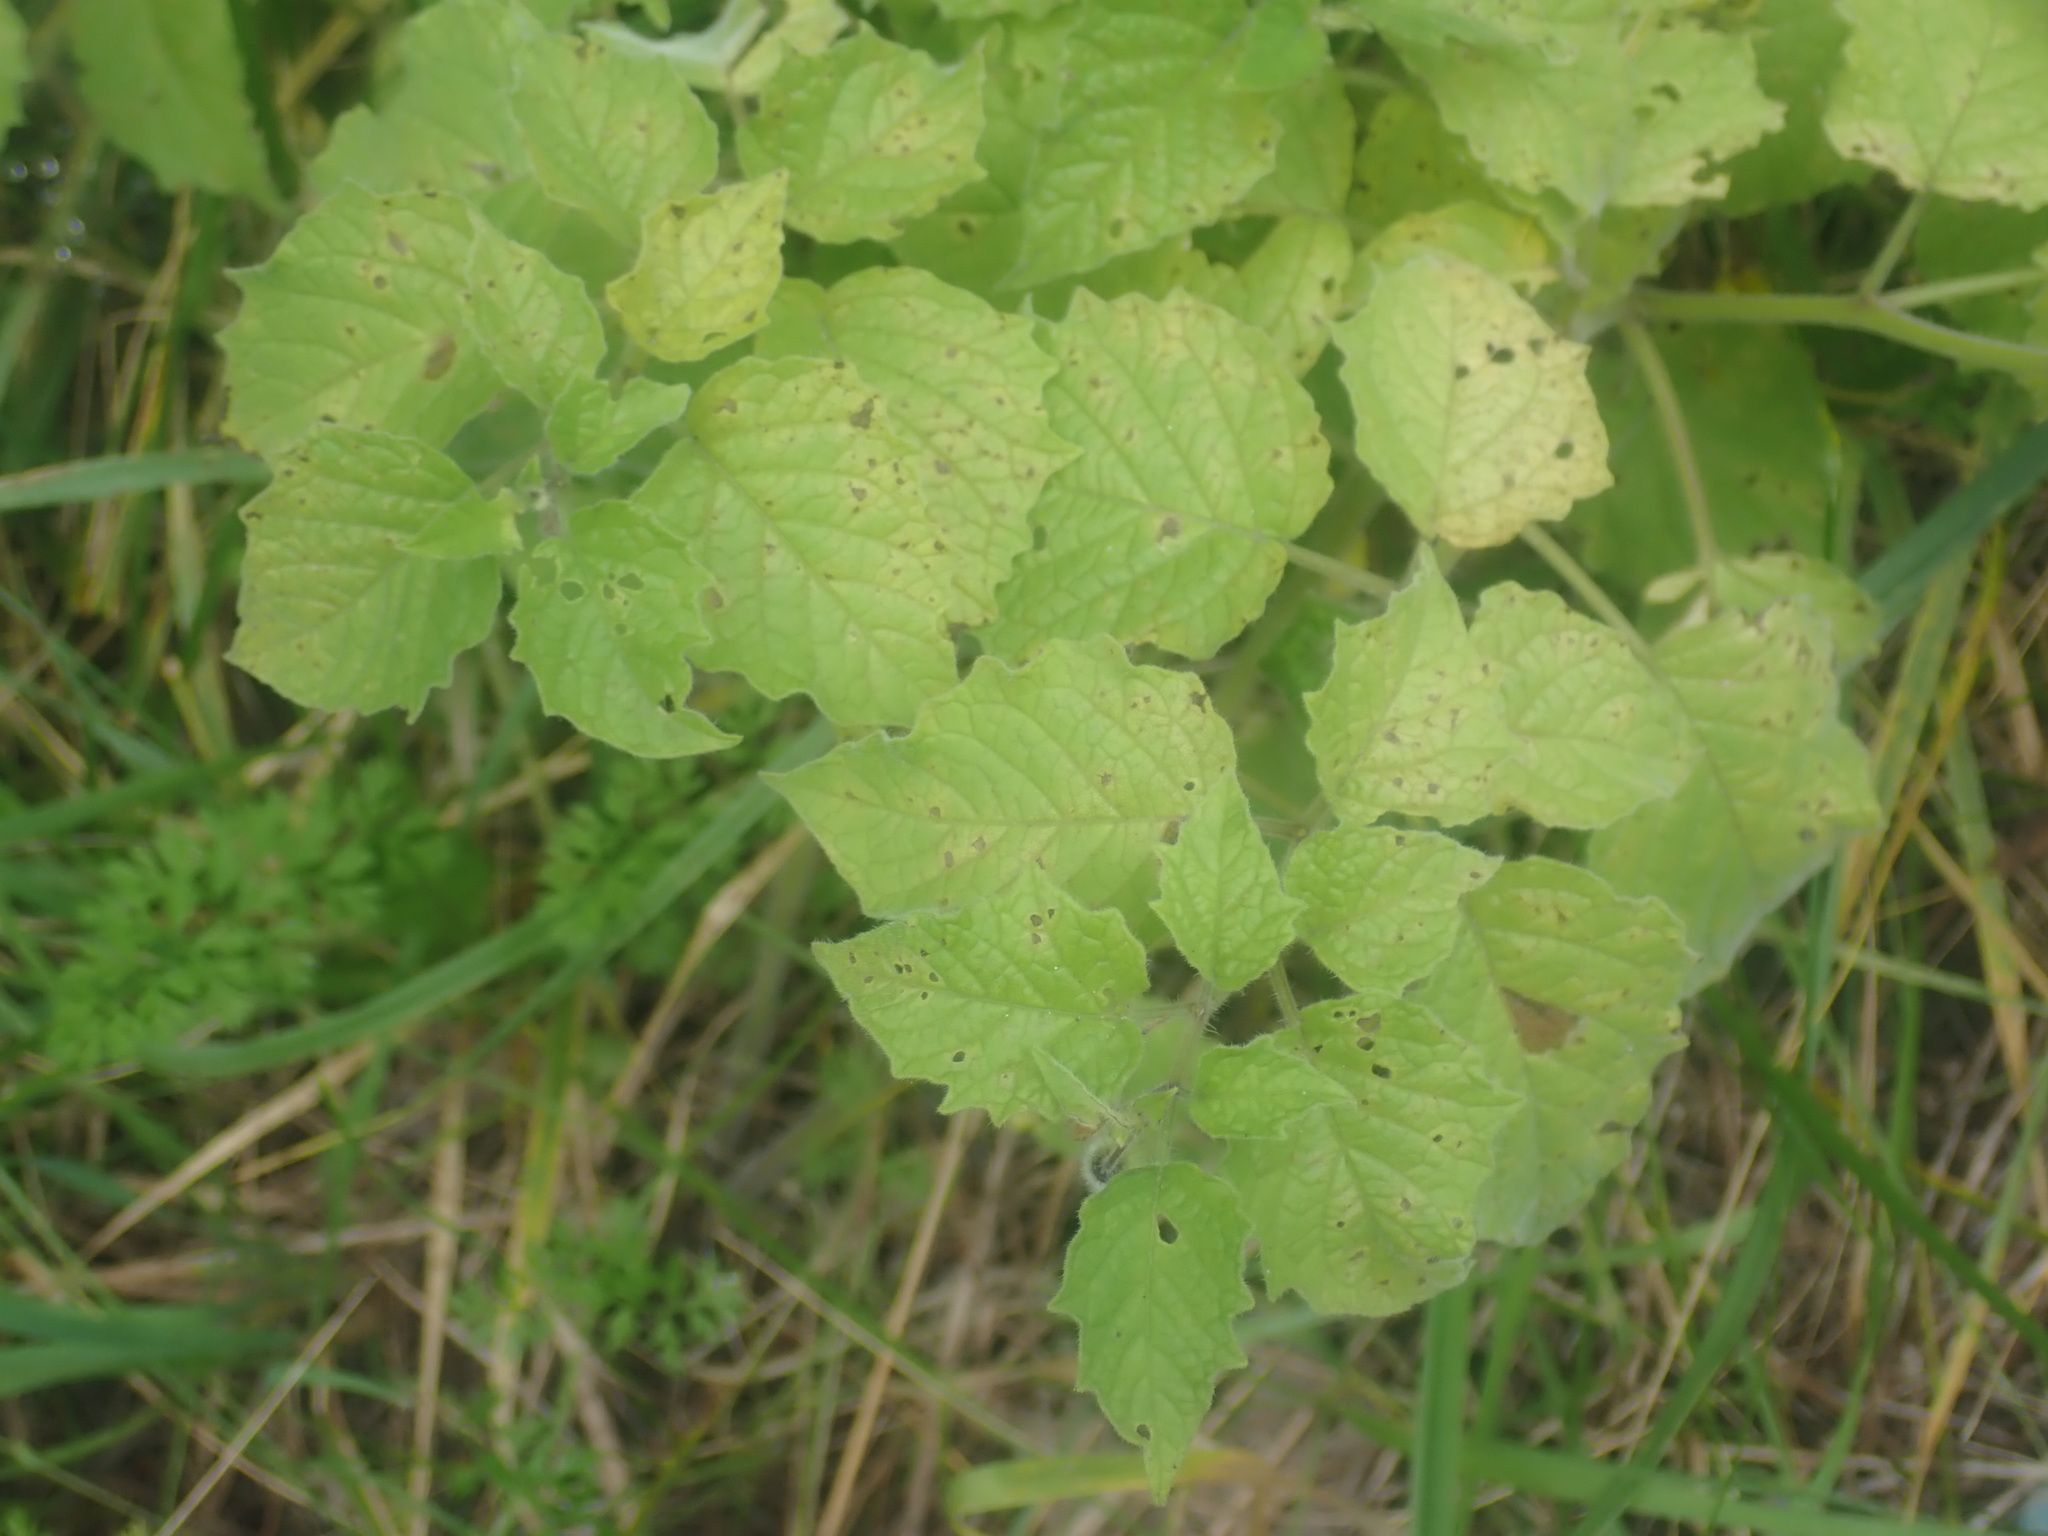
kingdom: Plantae
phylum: Tracheophyta
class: Magnoliopsida
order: Solanales
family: Solanaceae
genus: Physalis
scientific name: Physalis heterophylla
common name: Clammy ground-cherry
